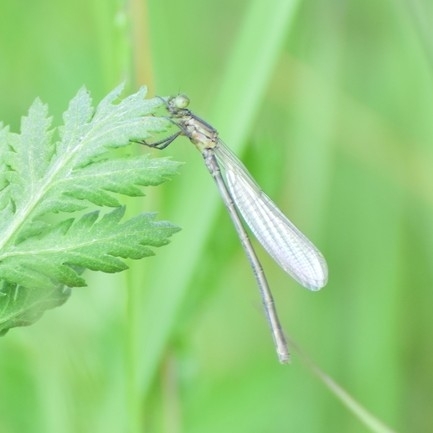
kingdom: Animalia
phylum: Arthropoda
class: Insecta
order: Odonata
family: Coenagrionidae
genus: Erythromma
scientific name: Erythromma najas
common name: Red-eyed damselfly
